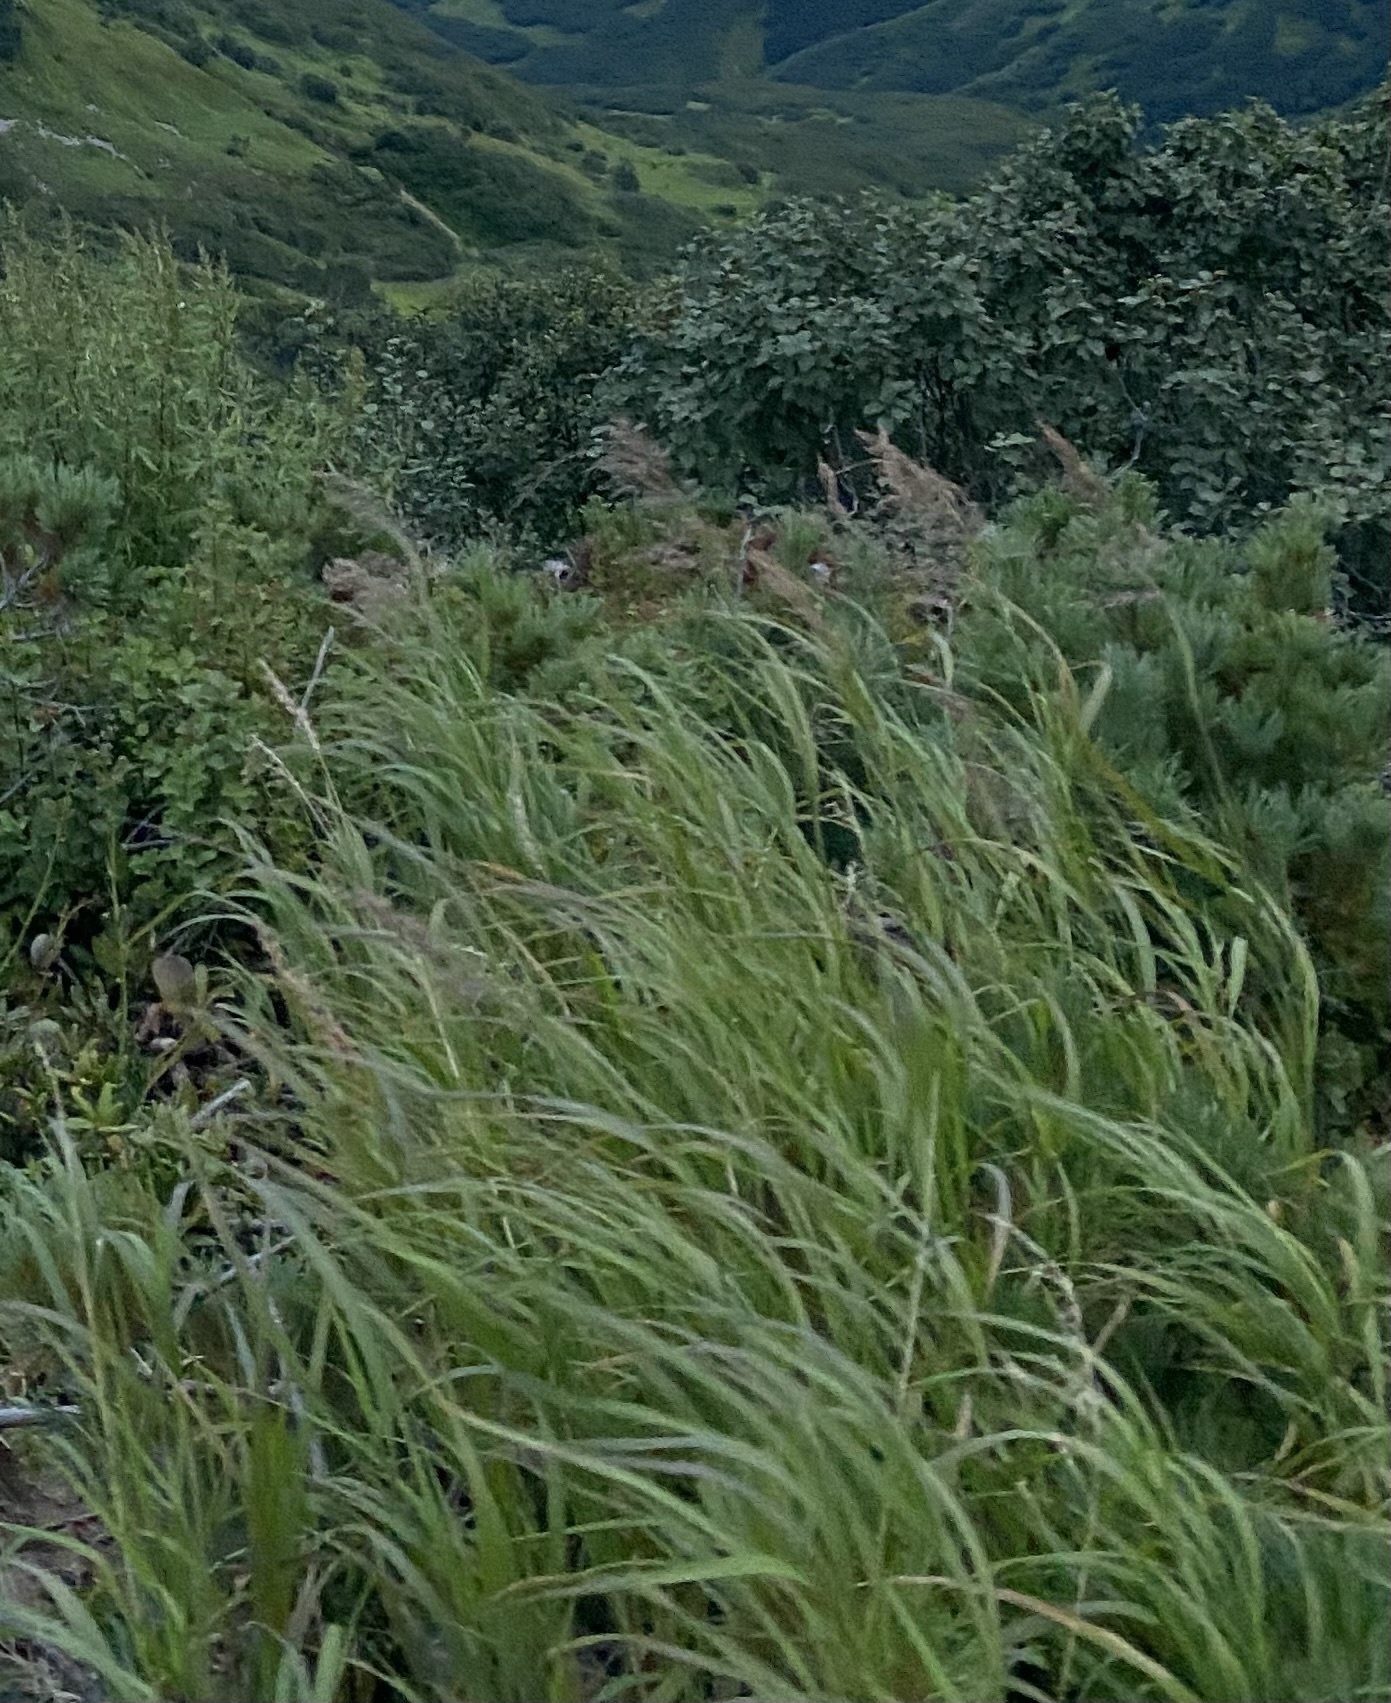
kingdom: Plantae
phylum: Tracheophyta
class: Liliopsida
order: Poales
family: Poaceae
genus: Calamagrostis
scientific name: Calamagrostis purpurea
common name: Scandinavian small-reed
